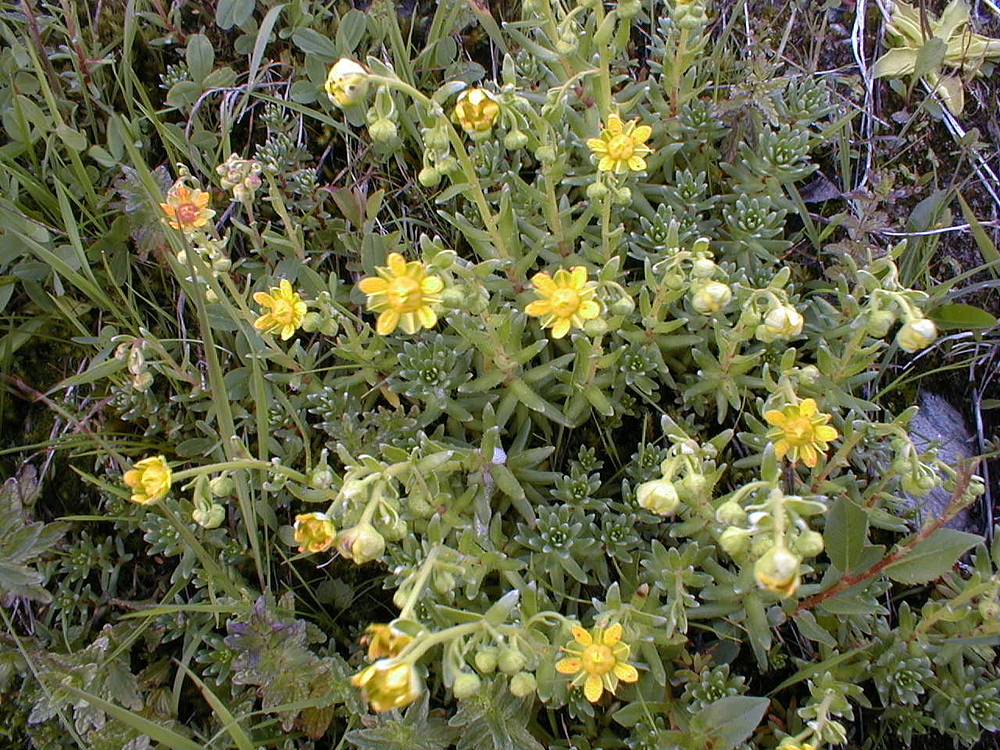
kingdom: Plantae
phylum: Tracheophyta
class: Magnoliopsida
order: Saxifragales
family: Saxifragaceae
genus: Saxifraga
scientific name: Saxifraga aizoides
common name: Yellow mountain saxifrage
